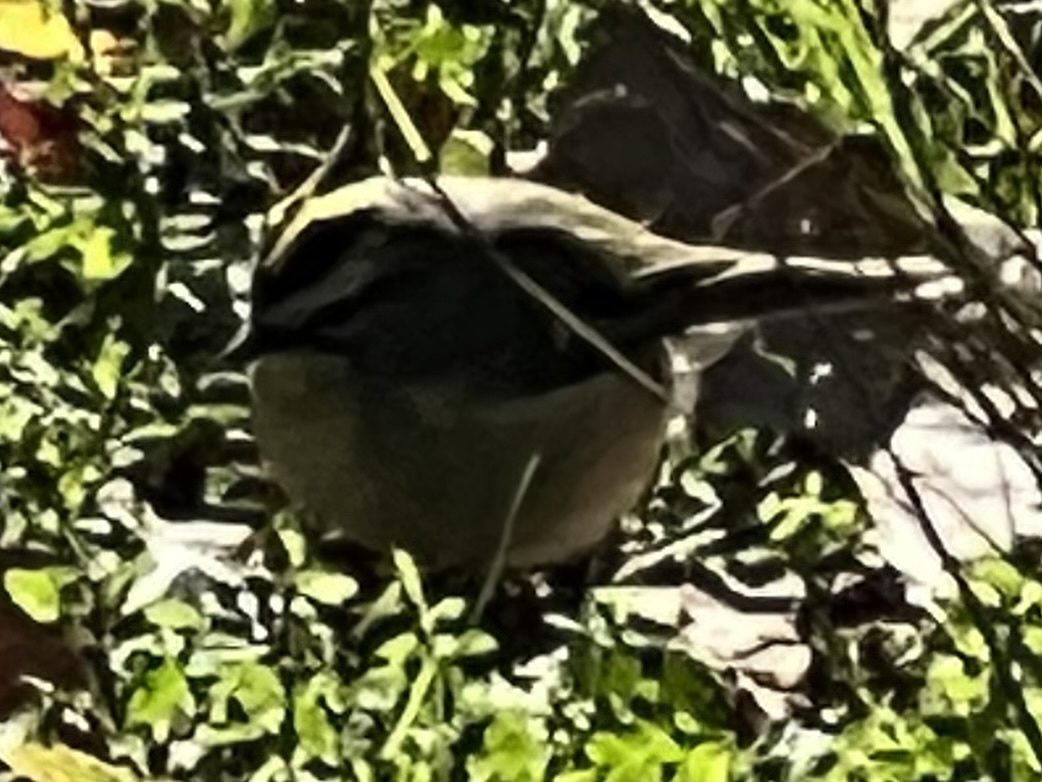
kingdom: Animalia
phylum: Chordata
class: Aves
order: Passeriformes
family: Regulidae
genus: Regulus
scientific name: Regulus satrapa
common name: Golden-crowned kinglet
